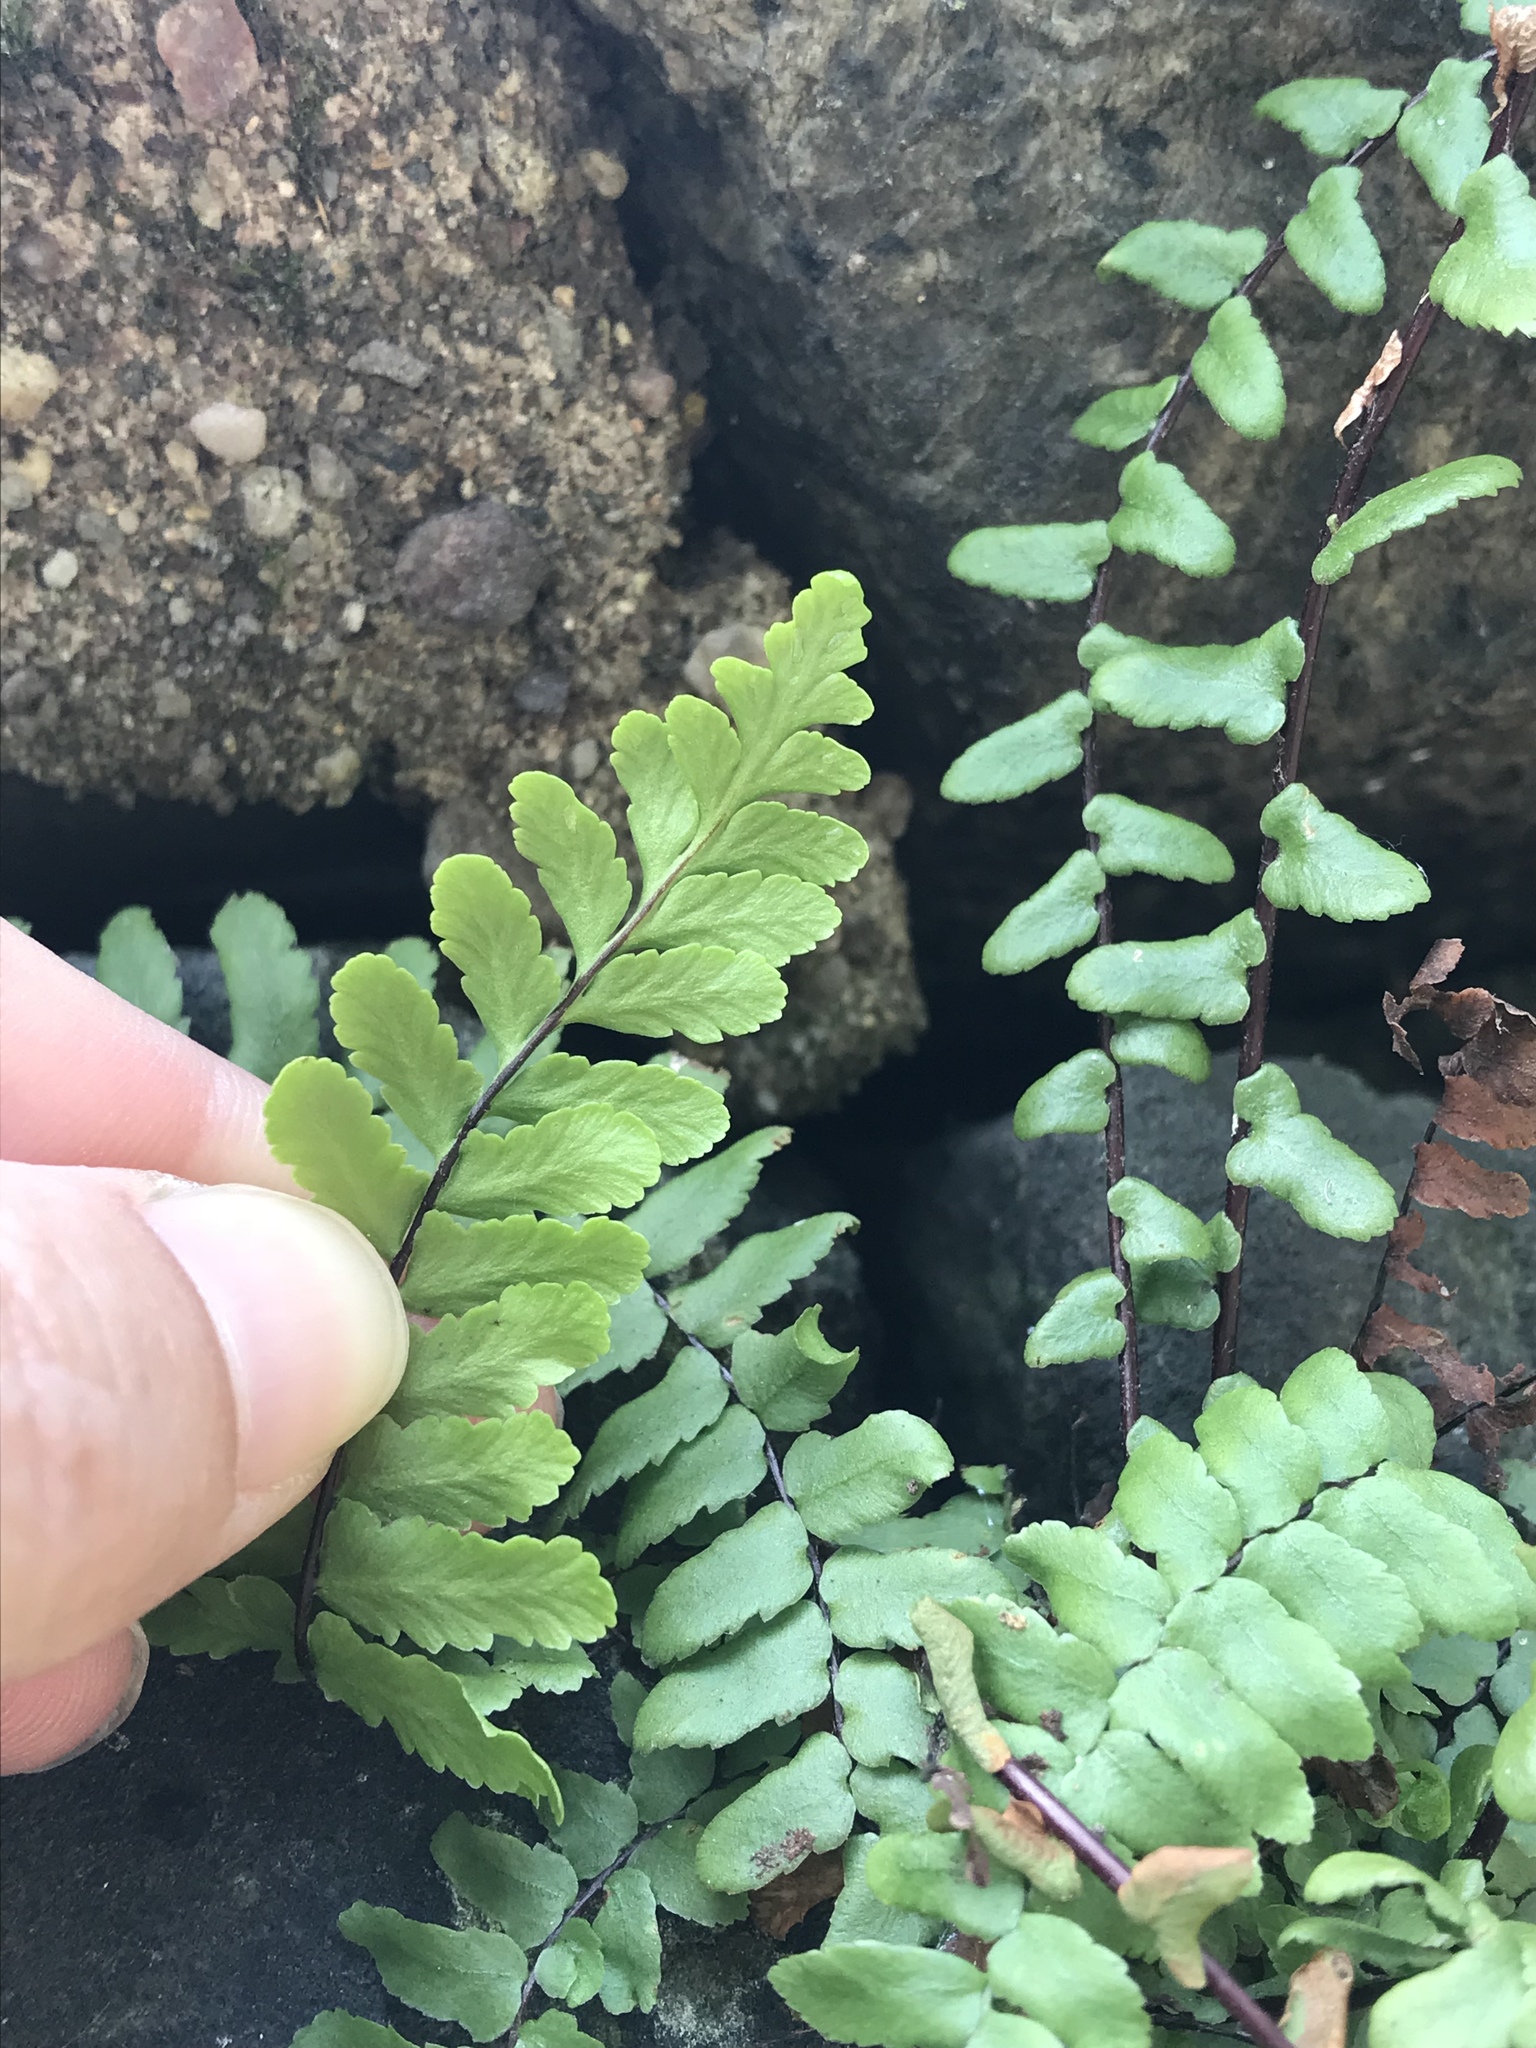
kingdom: Plantae
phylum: Tracheophyta
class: Polypodiopsida
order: Polypodiales
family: Aspleniaceae
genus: Asplenium
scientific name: Asplenium platyneuron
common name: Ebony spleenwort
